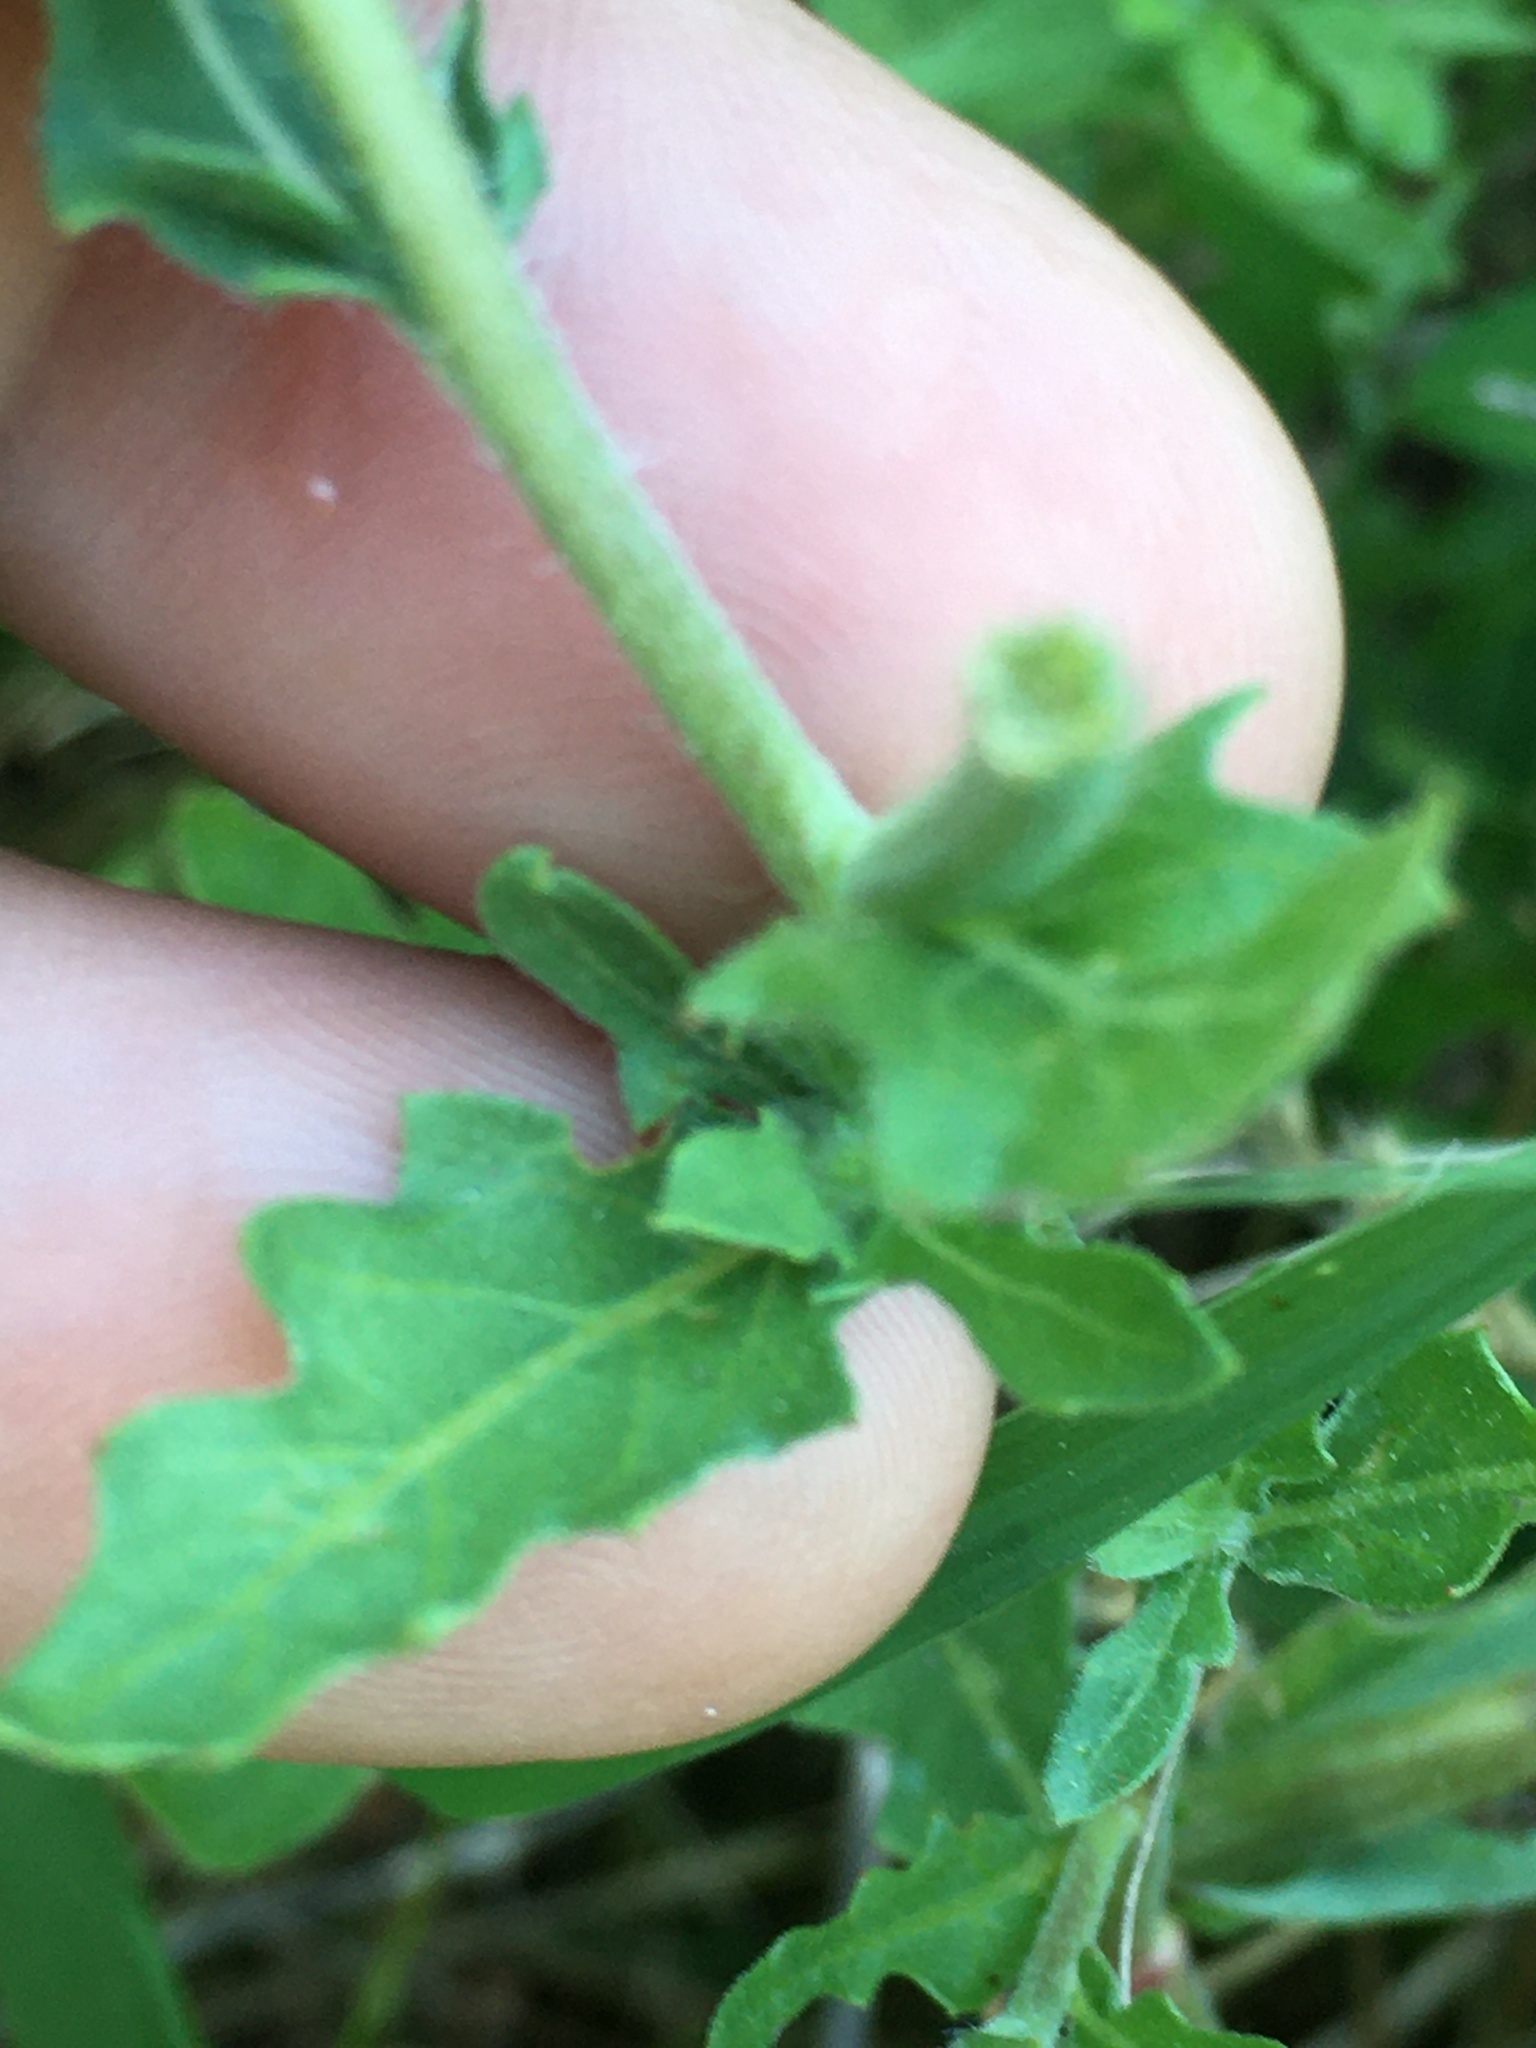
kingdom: Plantae
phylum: Tracheophyta
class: Magnoliopsida
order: Myrtales
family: Onagraceae
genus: Oenothera
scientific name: Oenothera laciniata
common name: Cut-leaved evening-primrose
